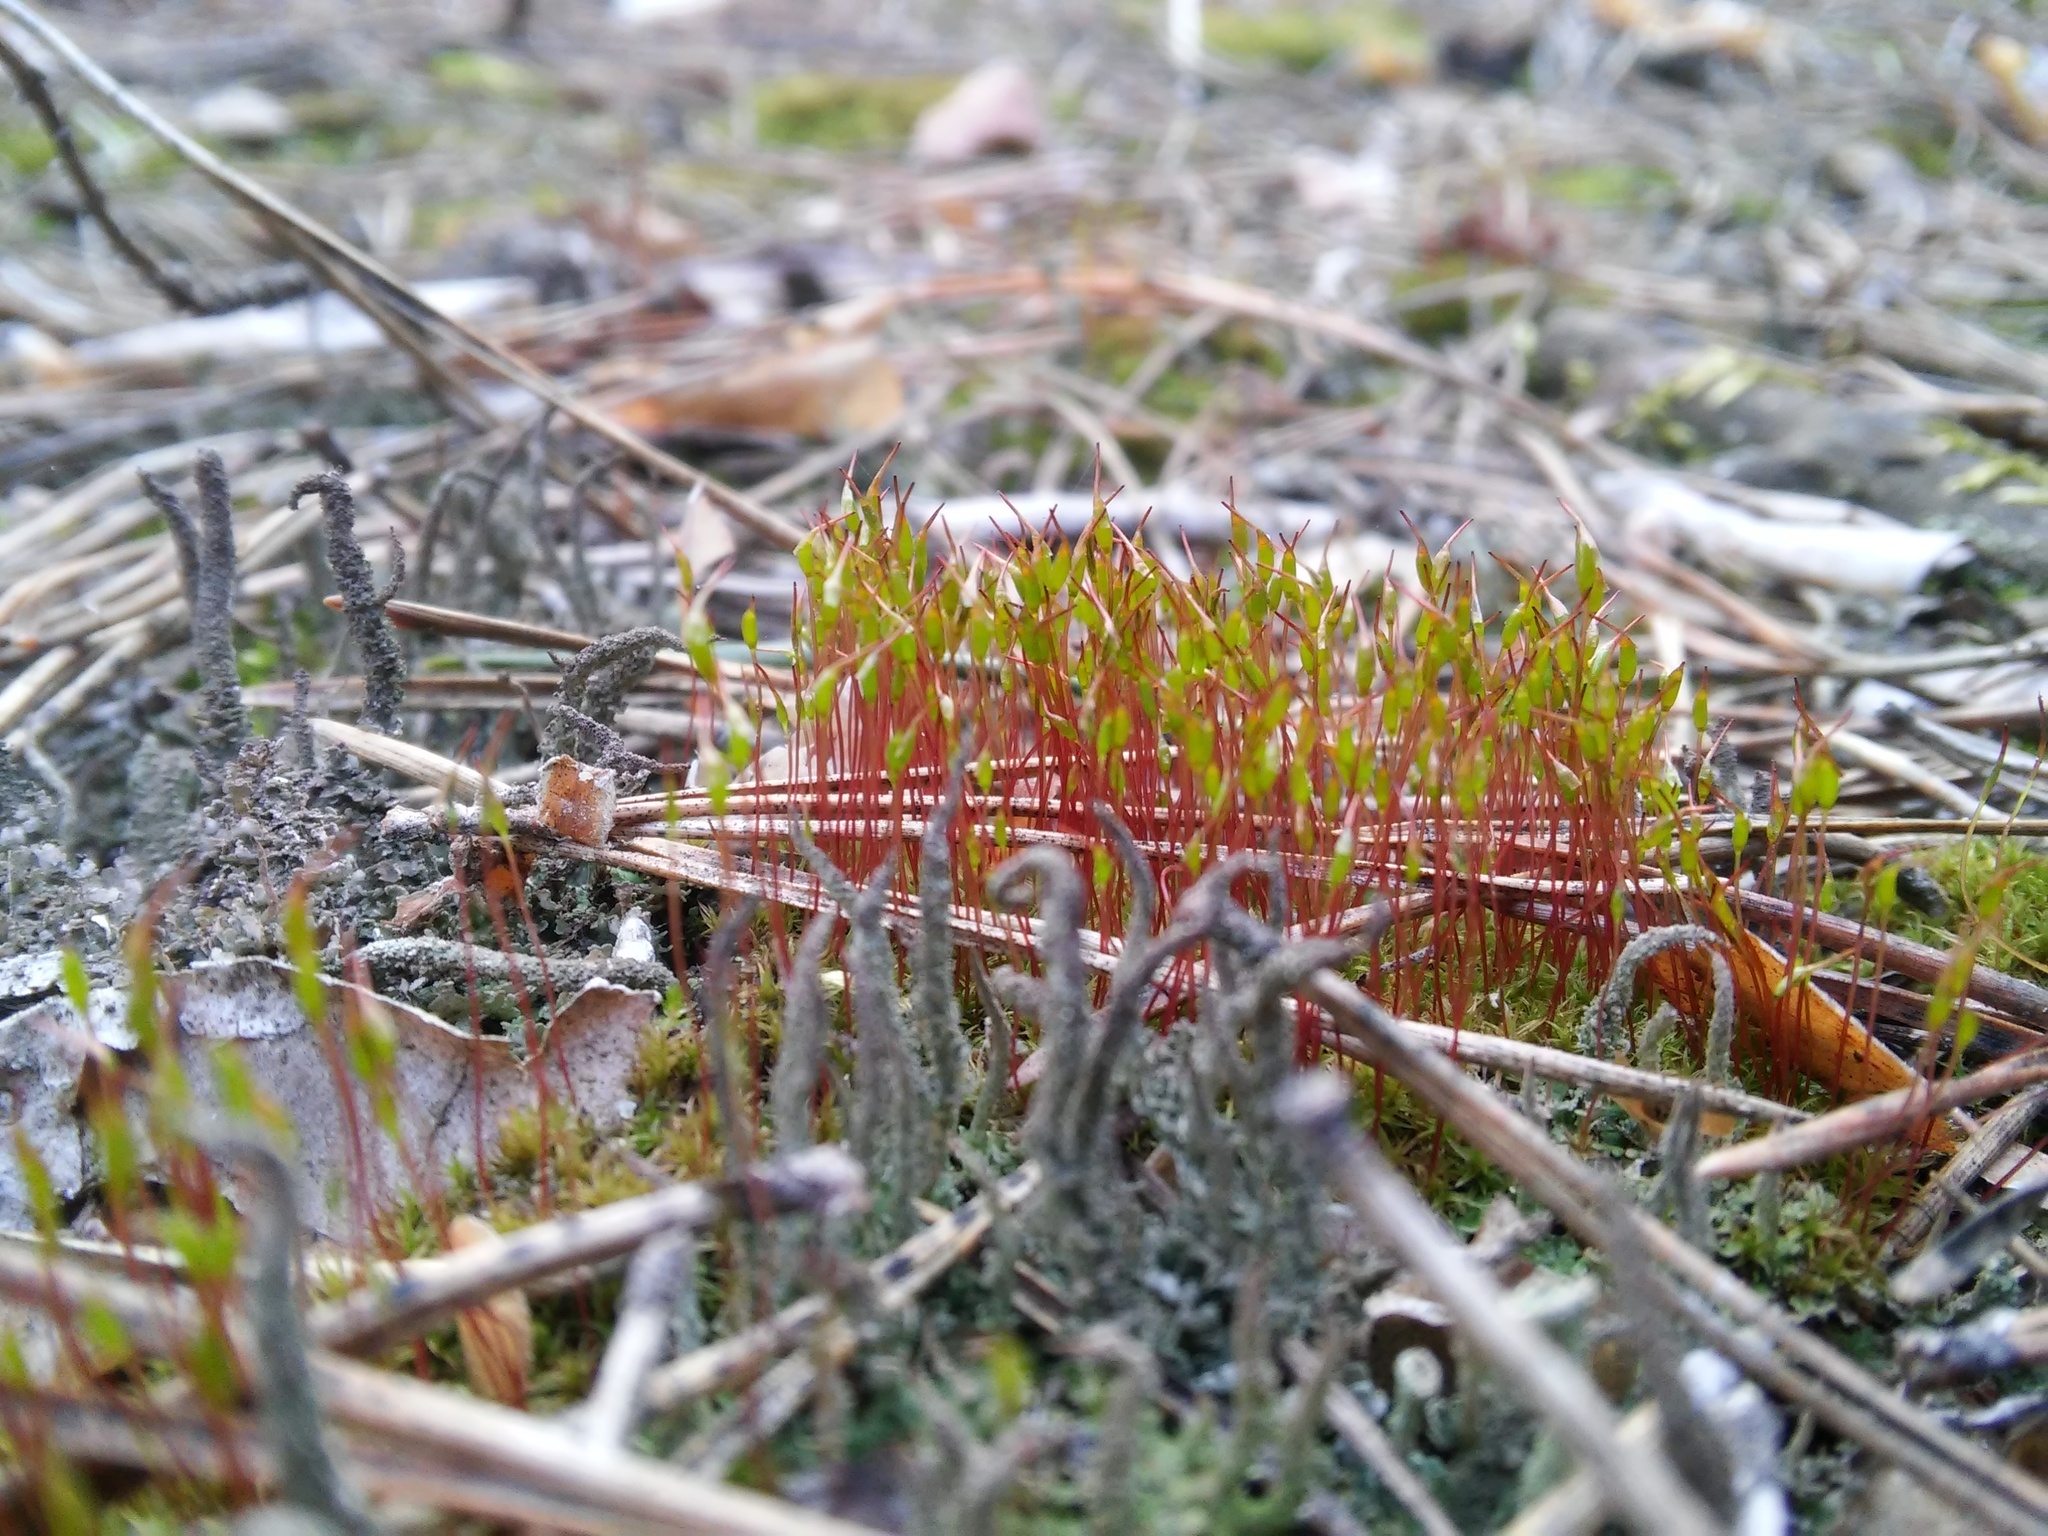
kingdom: Plantae
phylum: Bryophyta
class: Bryopsida
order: Dicranales
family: Ditrichaceae
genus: Ceratodon
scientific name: Ceratodon purpureus
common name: Redshank
